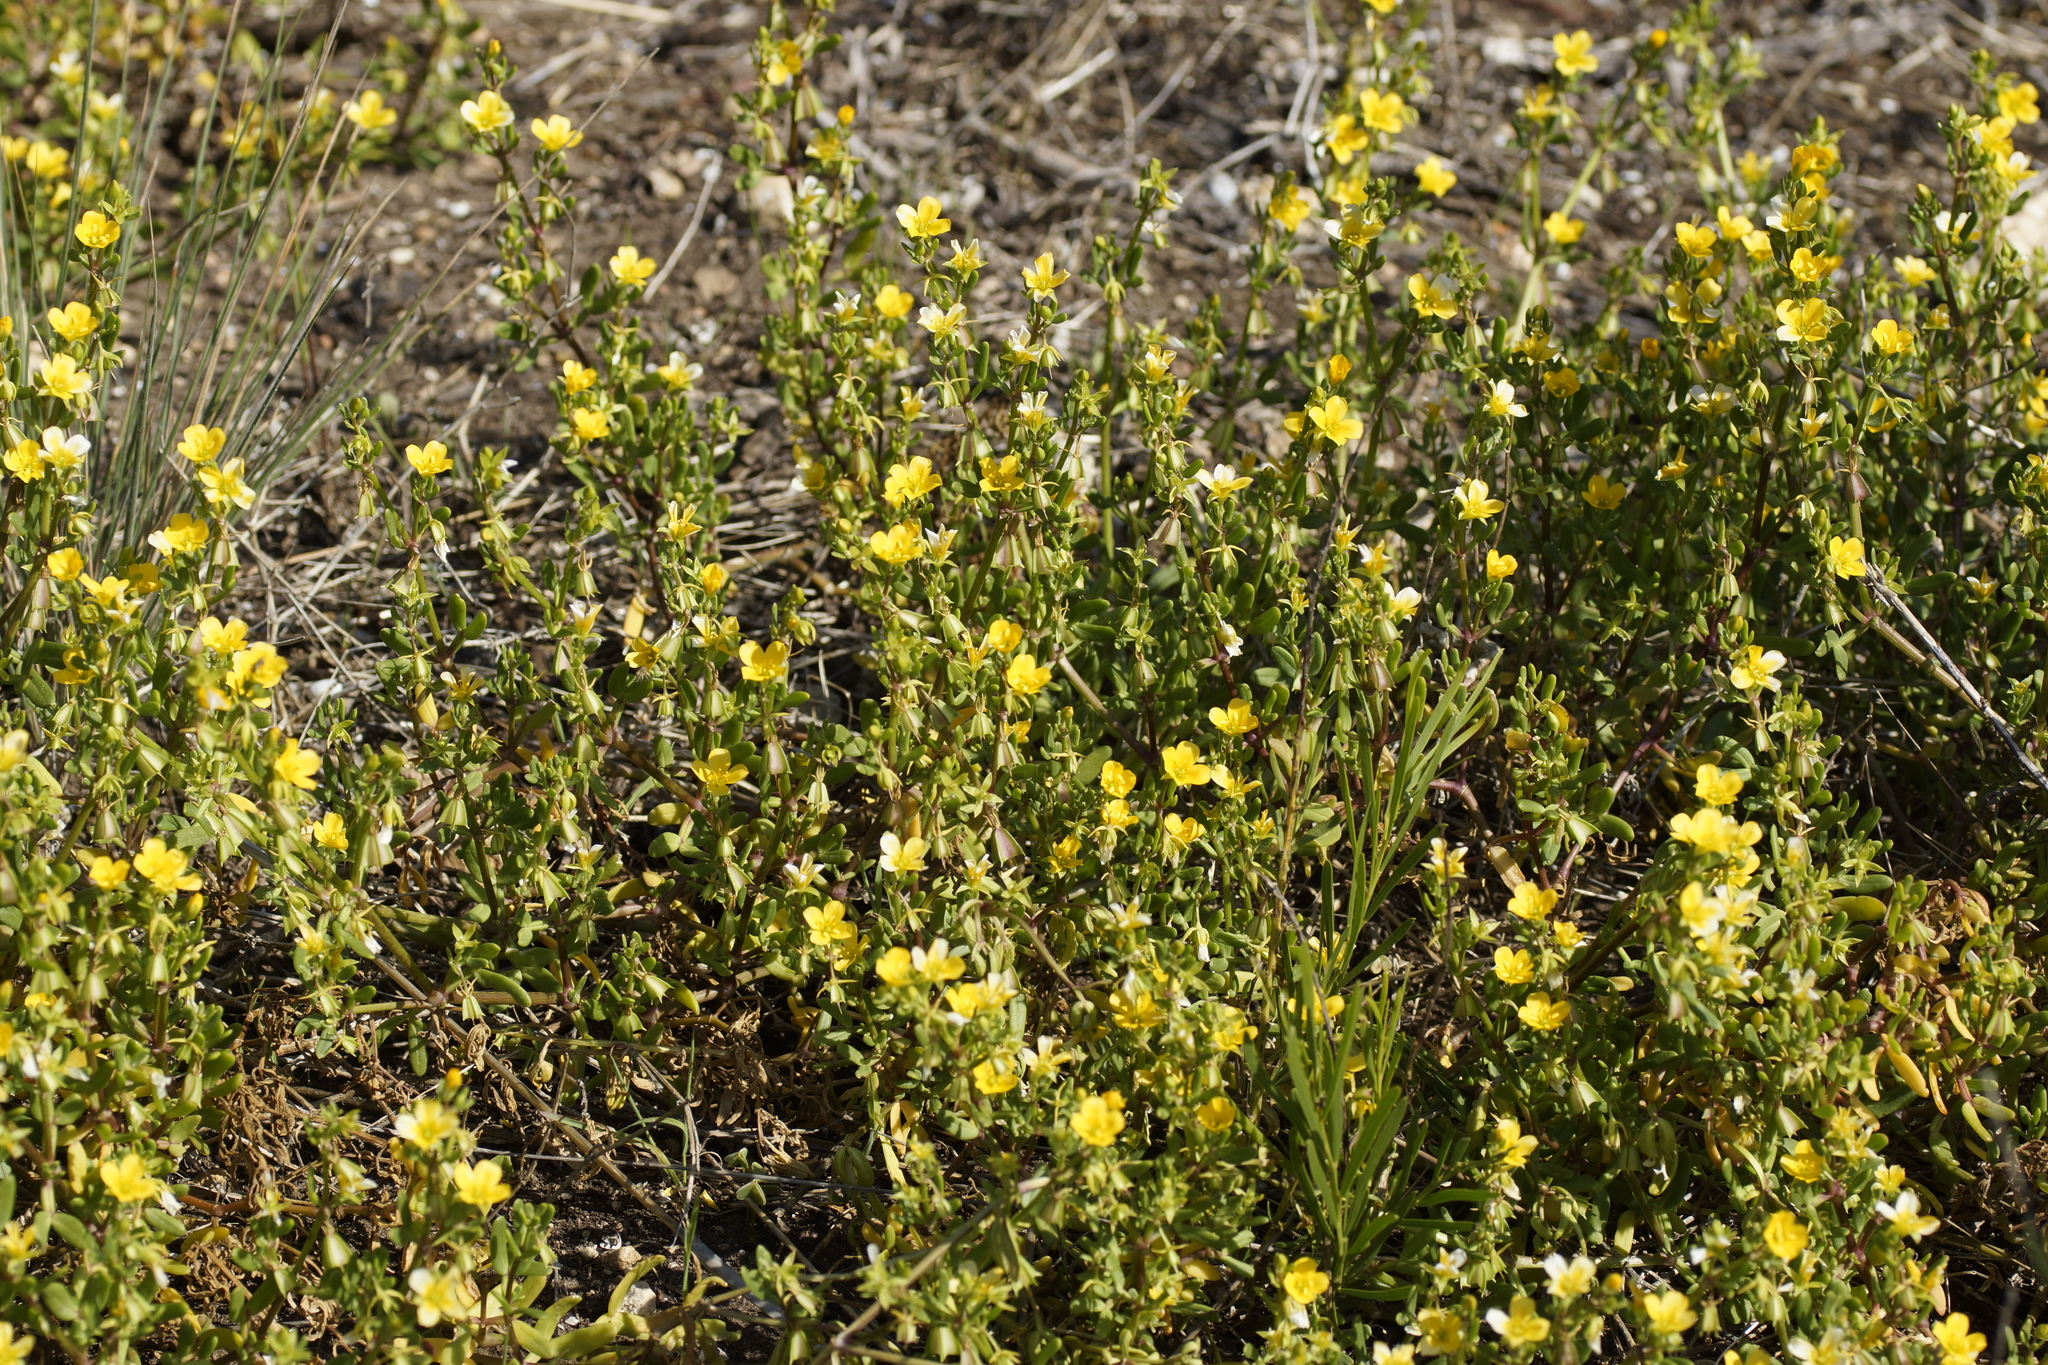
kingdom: Plantae
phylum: Tracheophyta
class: Magnoliopsida
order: Zygophyllales
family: Zygophyllaceae
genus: Roepera
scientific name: Roepera billardieri
